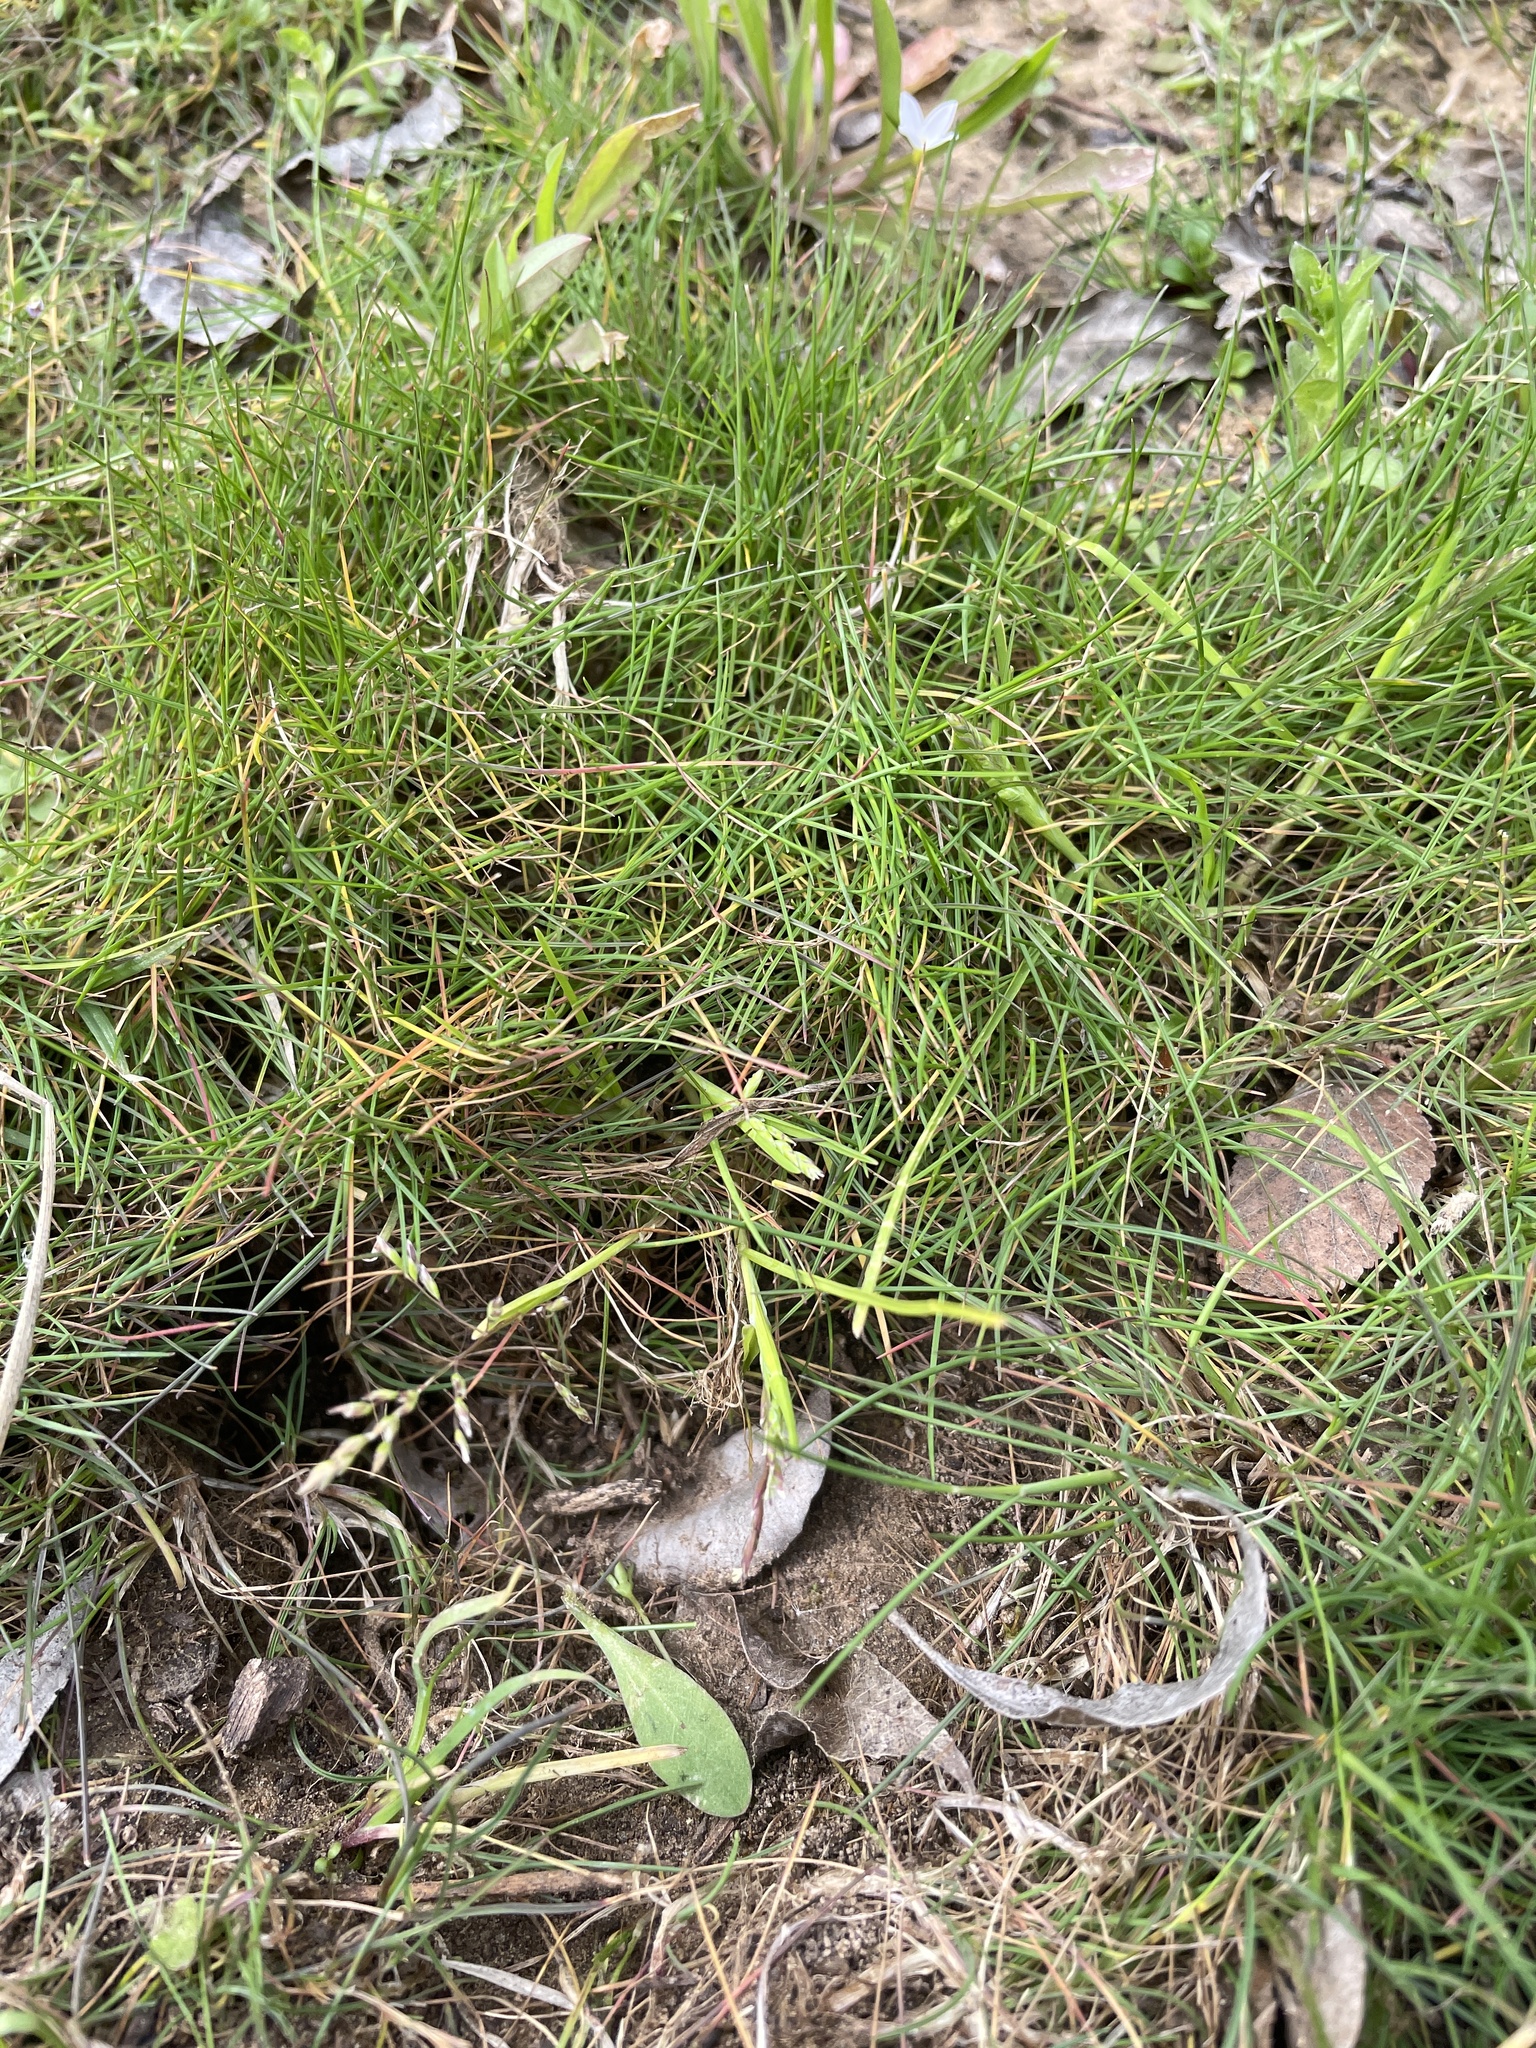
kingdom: Plantae
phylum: Tracheophyta
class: Liliopsida
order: Poales
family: Poaceae
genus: Poa
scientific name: Poa annua
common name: Annual bluegrass
